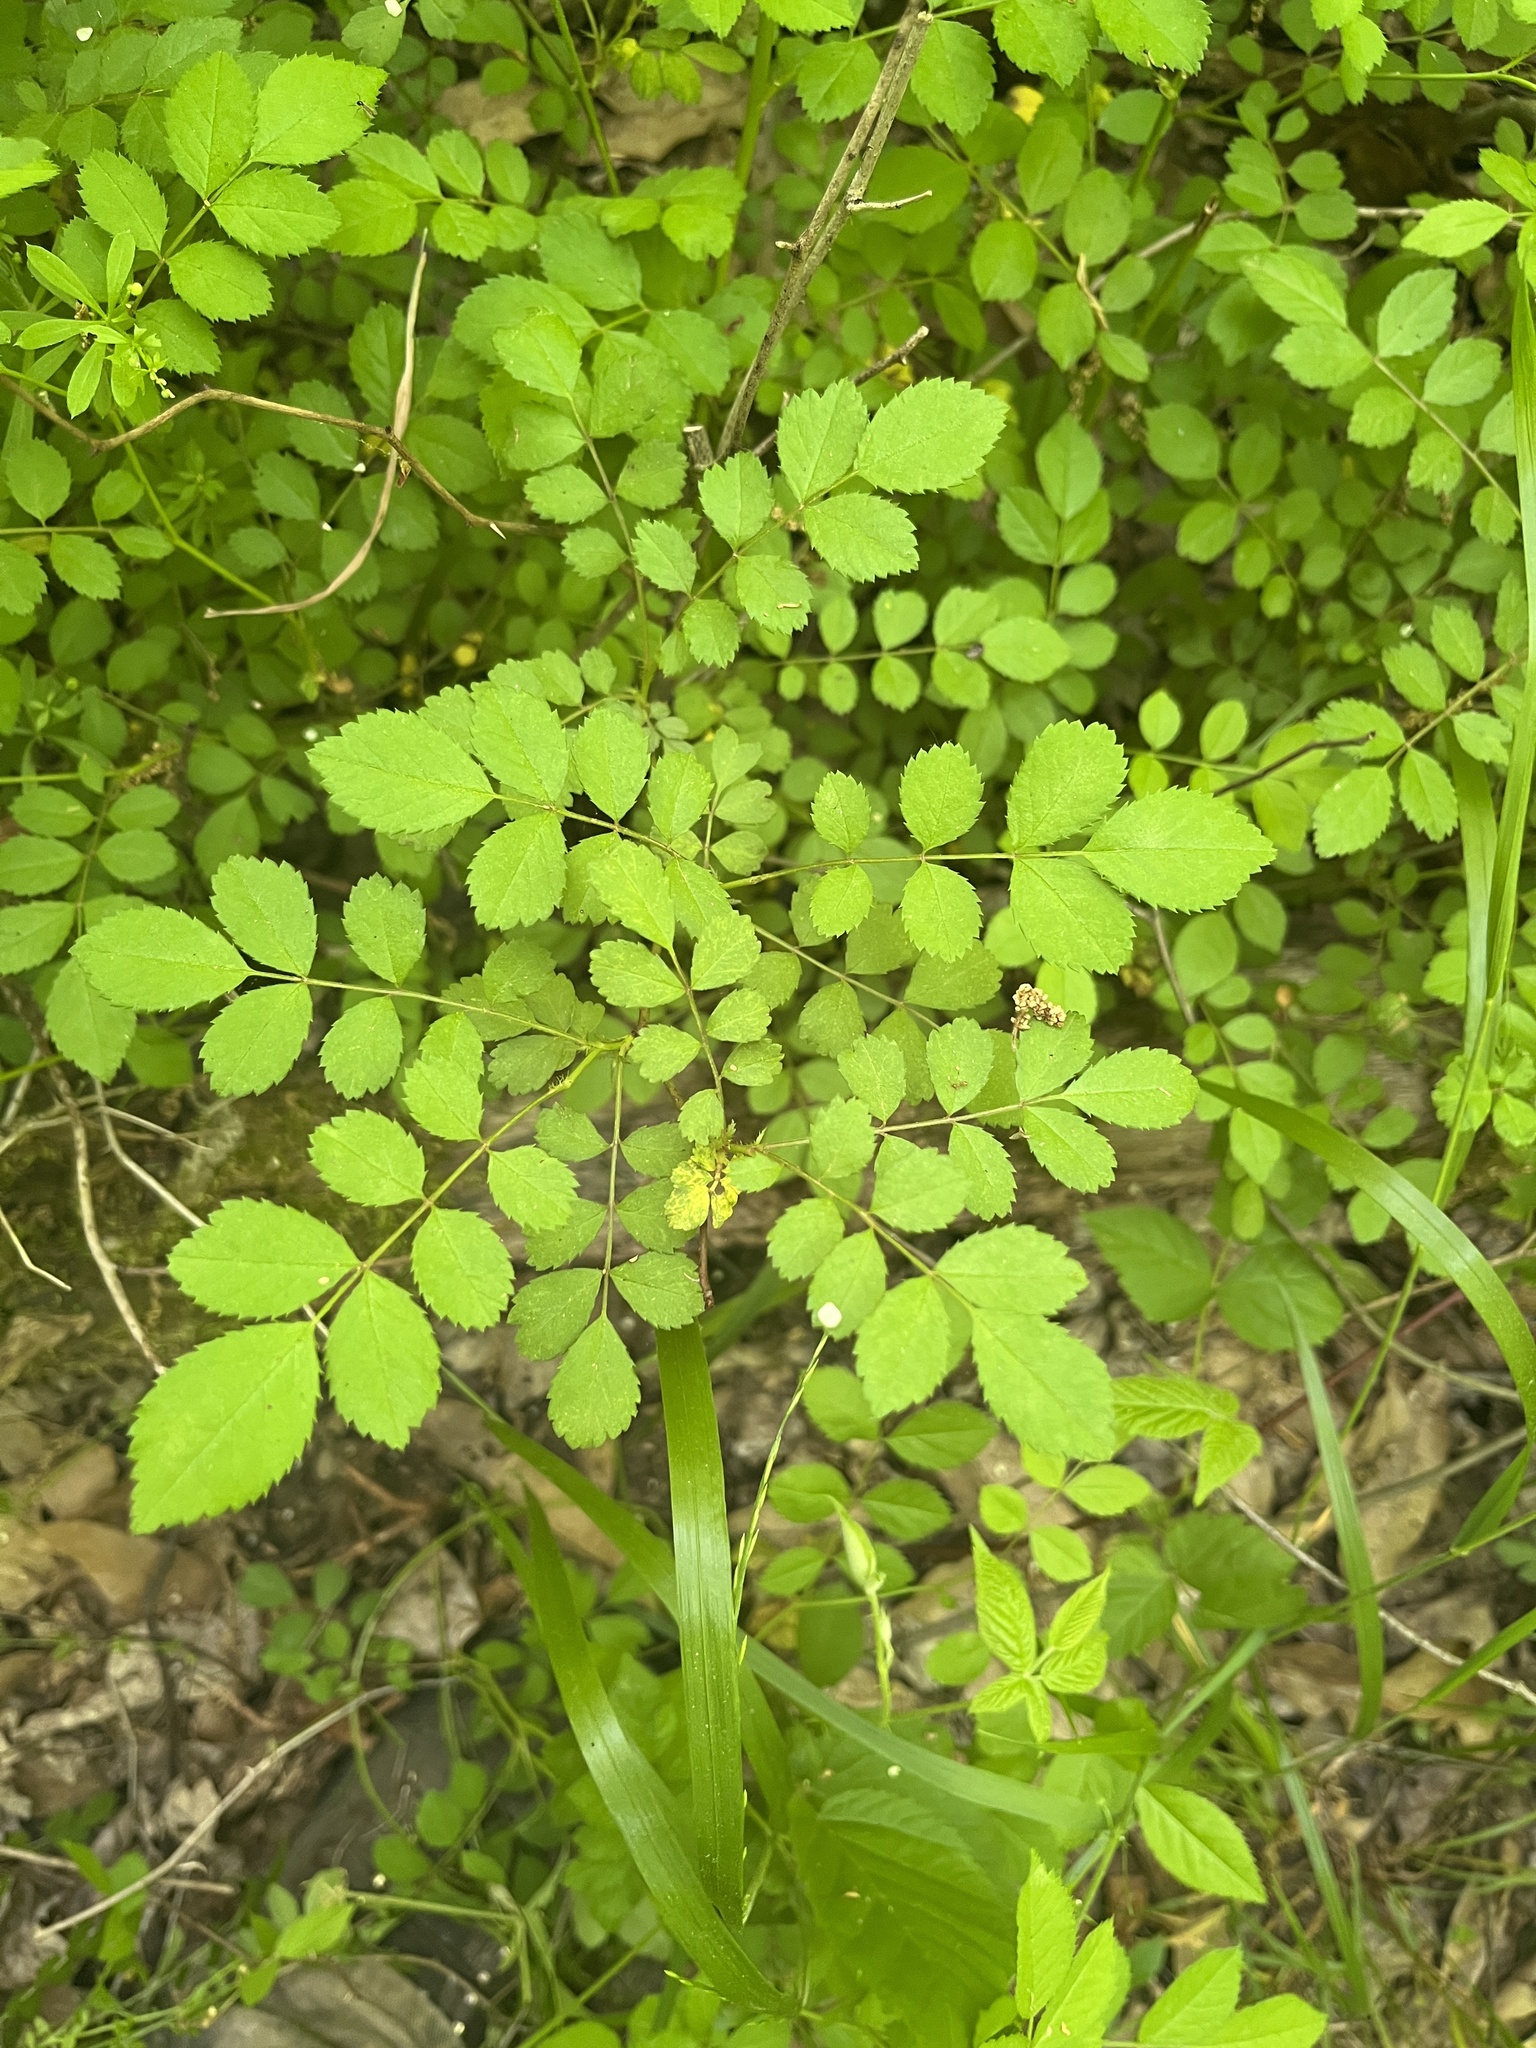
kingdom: Plantae
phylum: Tracheophyta
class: Magnoliopsida
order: Rosales
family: Rosaceae
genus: Rosa
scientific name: Rosa multiflora
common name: Multiflora rose
